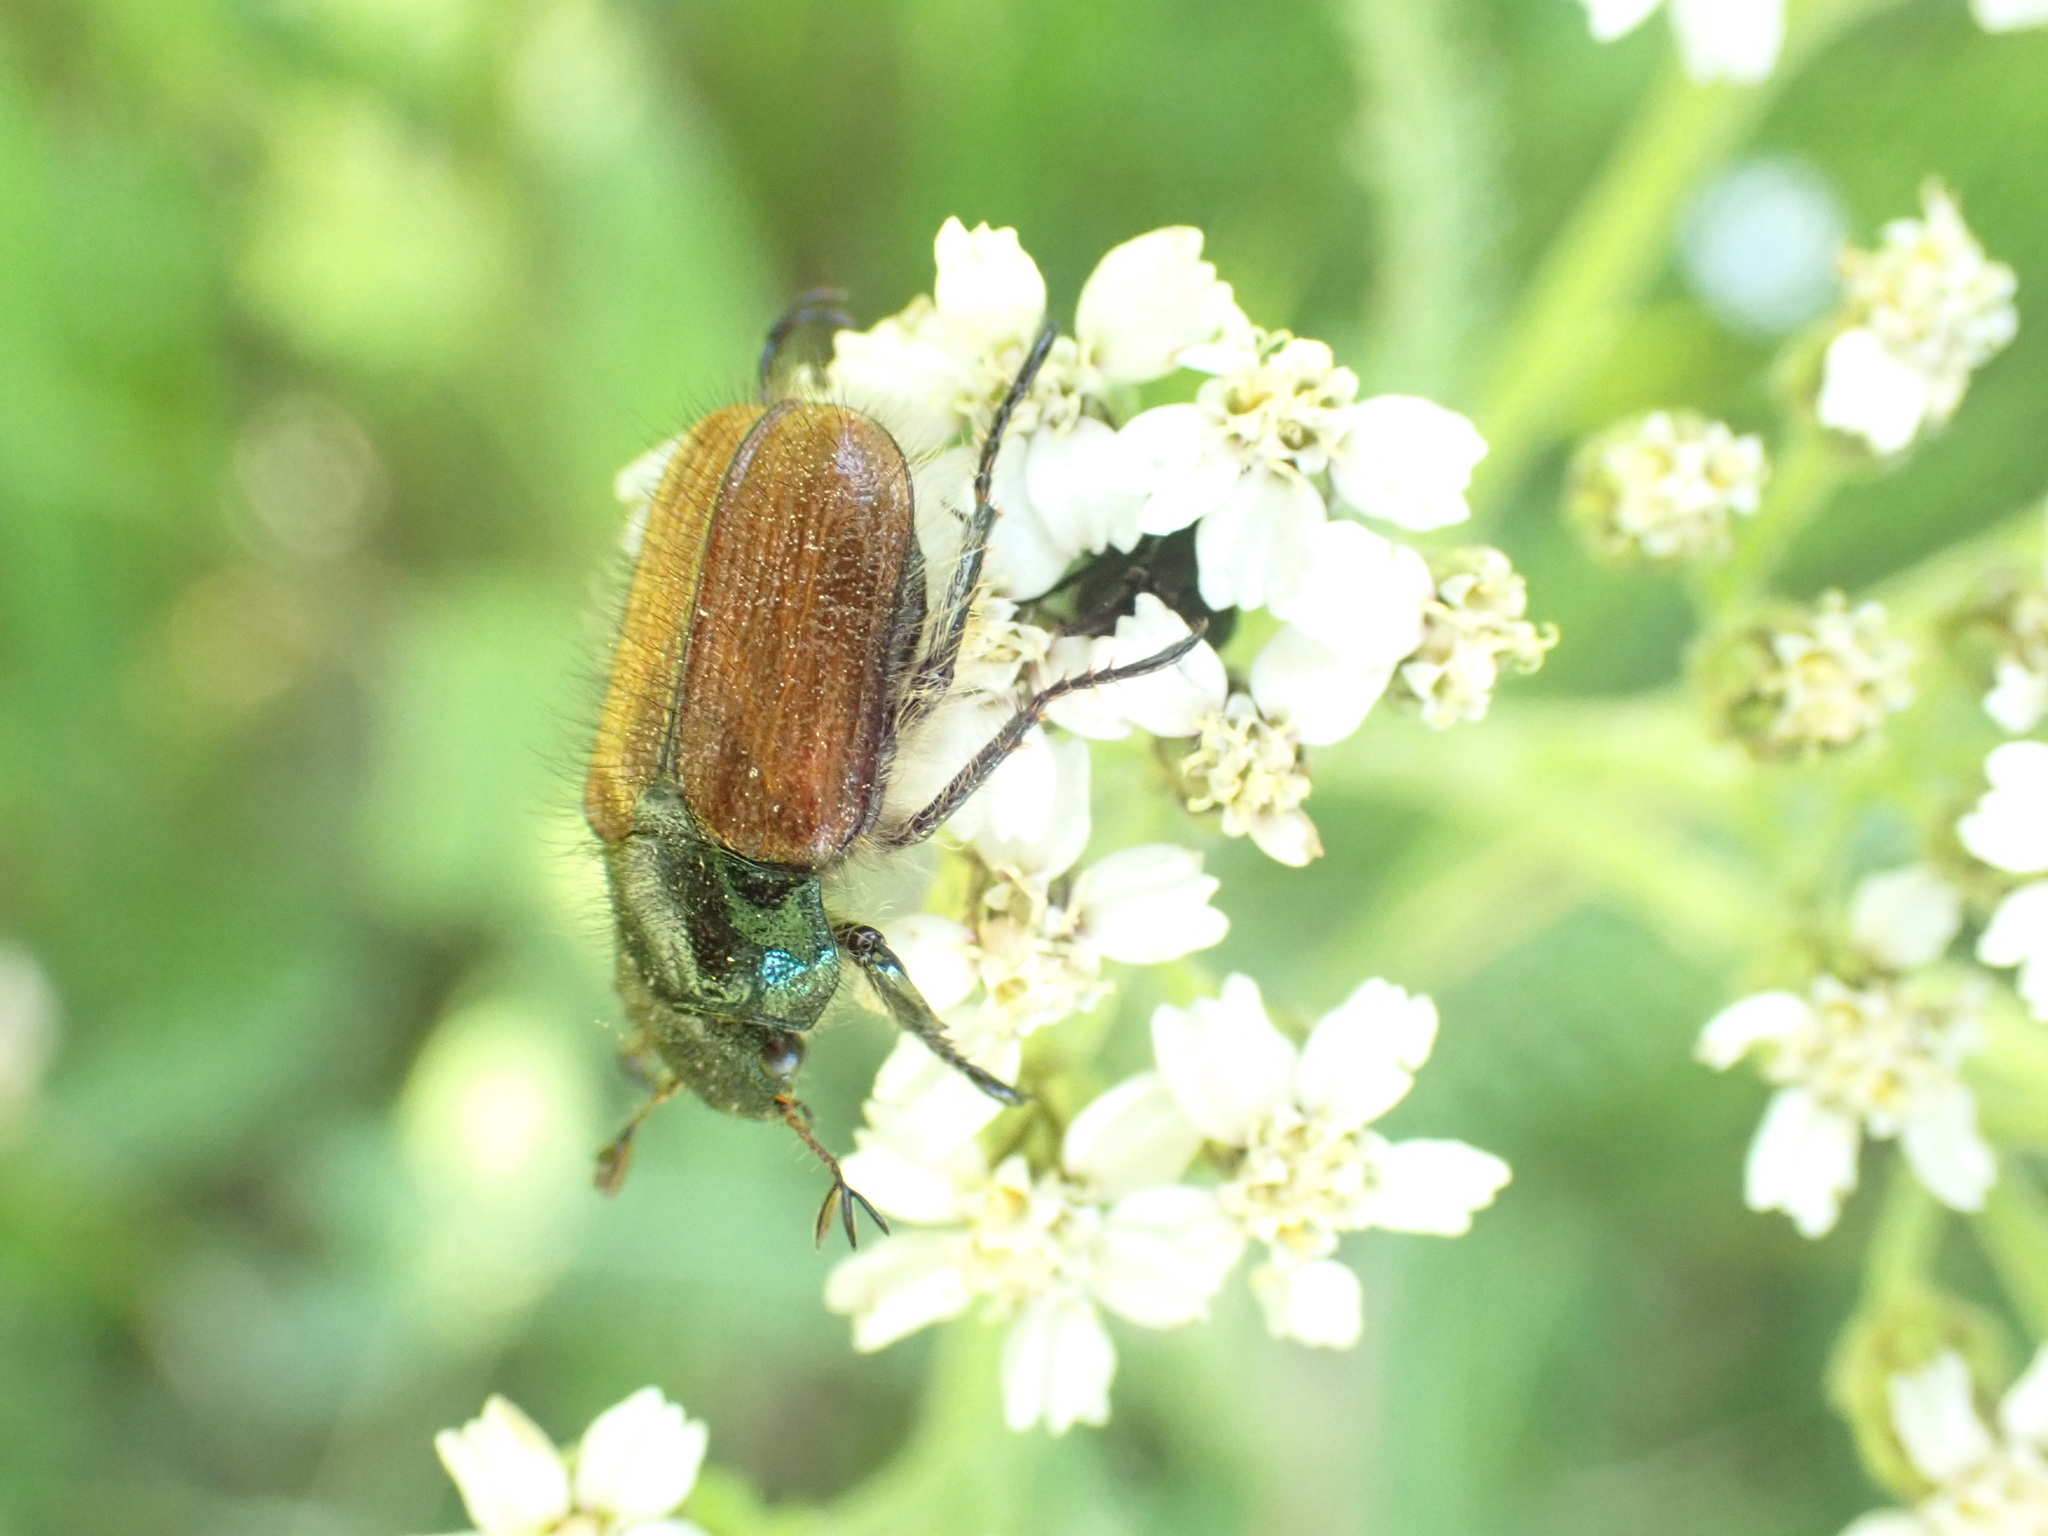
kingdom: Animalia
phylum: Arthropoda
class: Insecta
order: Coleoptera
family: Scarabaeidae
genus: Phyllopertha
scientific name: Phyllopertha horticola
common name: Garden chafer
